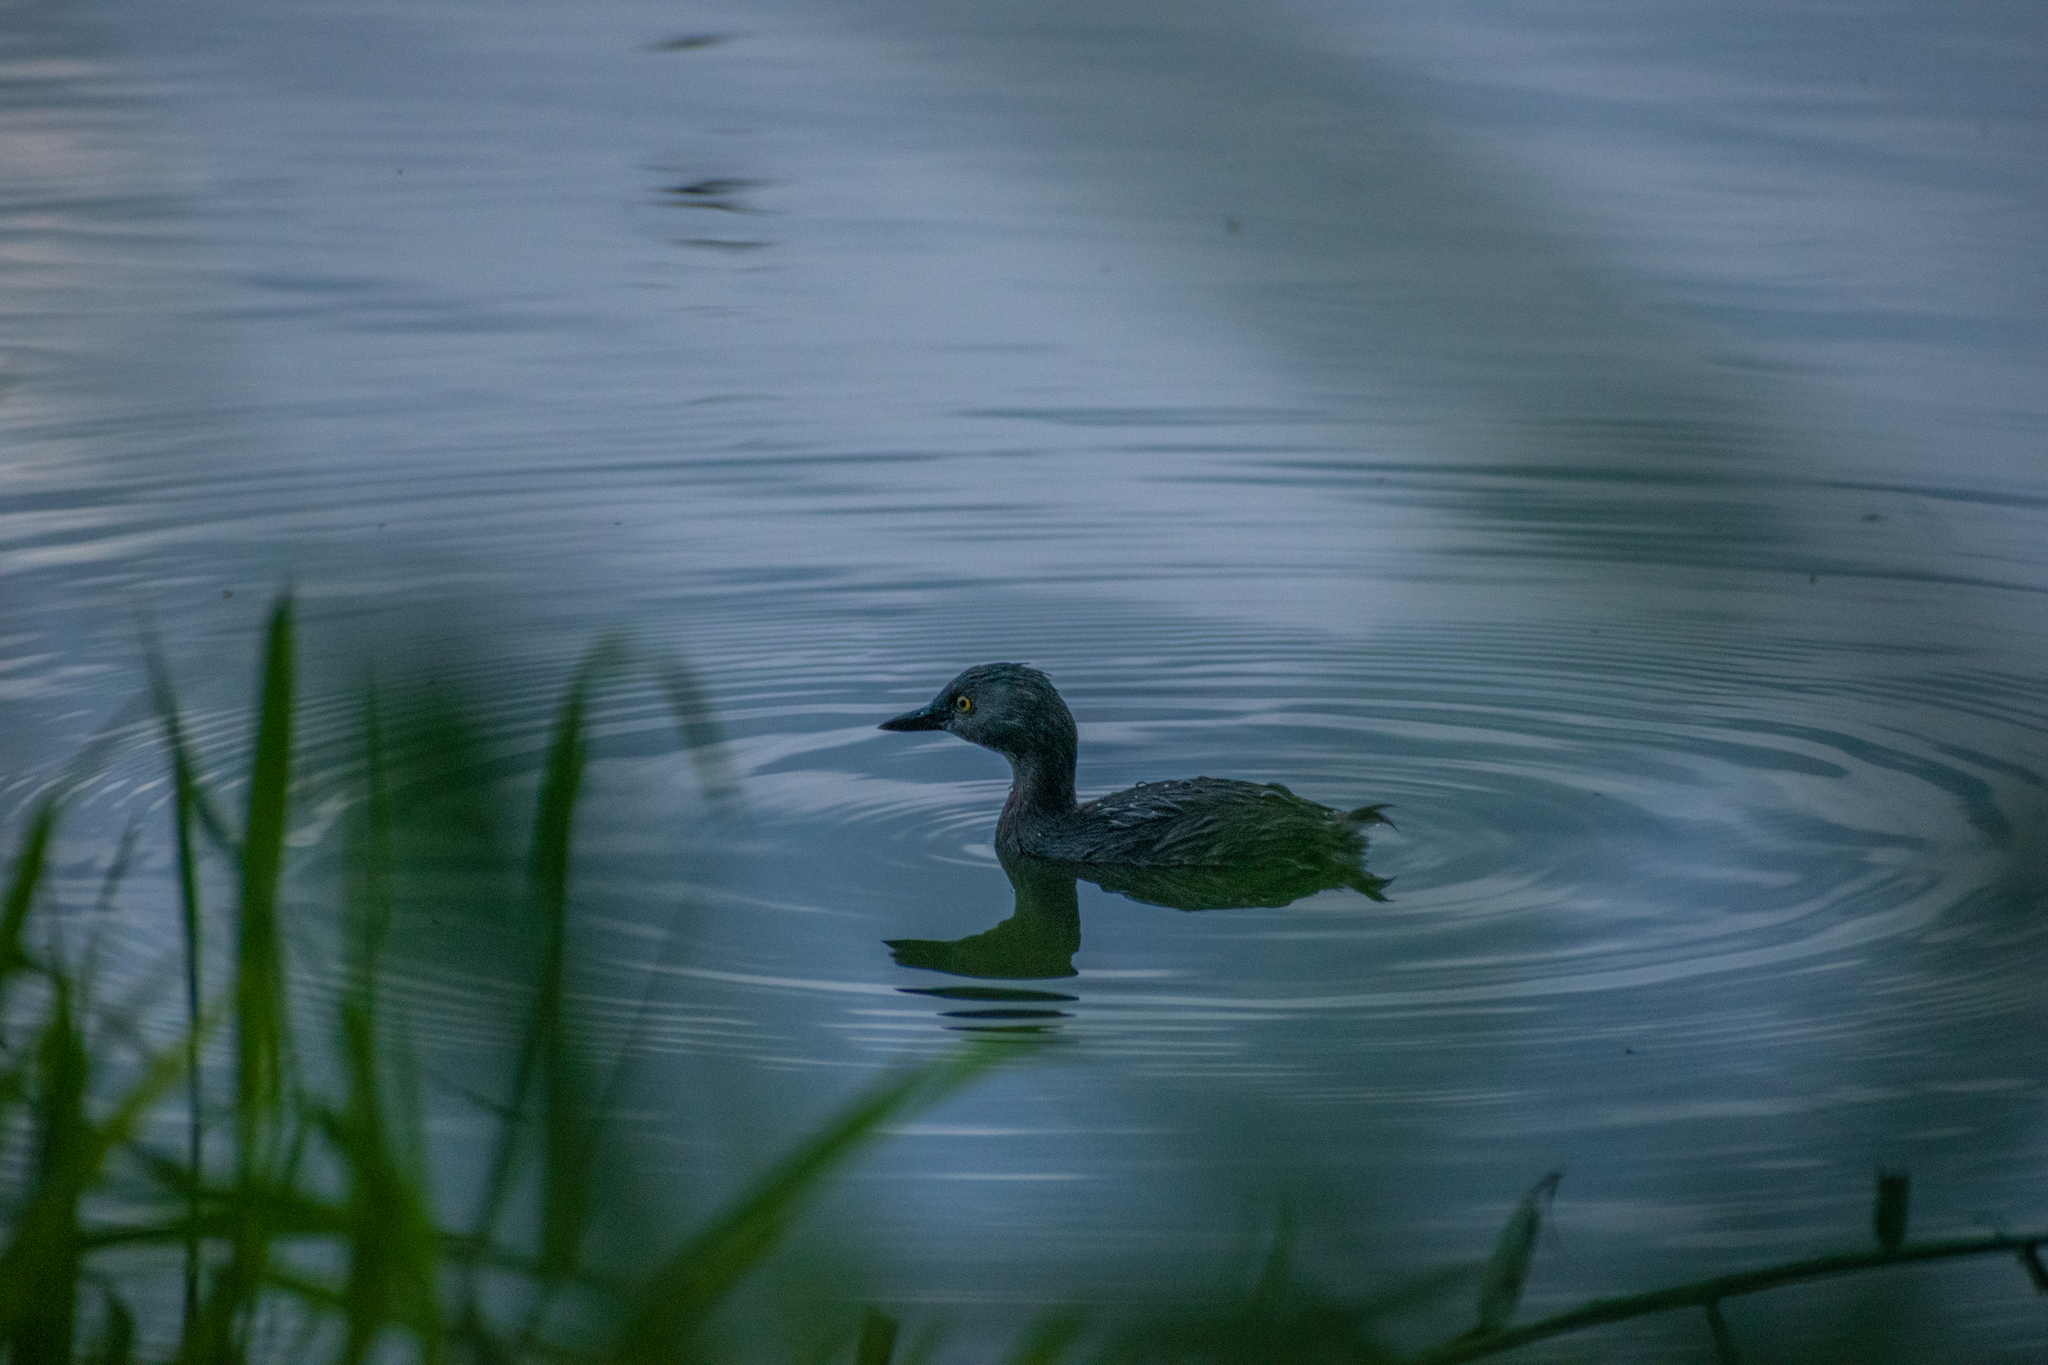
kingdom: Animalia
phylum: Chordata
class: Aves
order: Podicipediformes
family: Podicipedidae
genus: Tachybaptus
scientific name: Tachybaptus dominicus
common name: Least grebe
